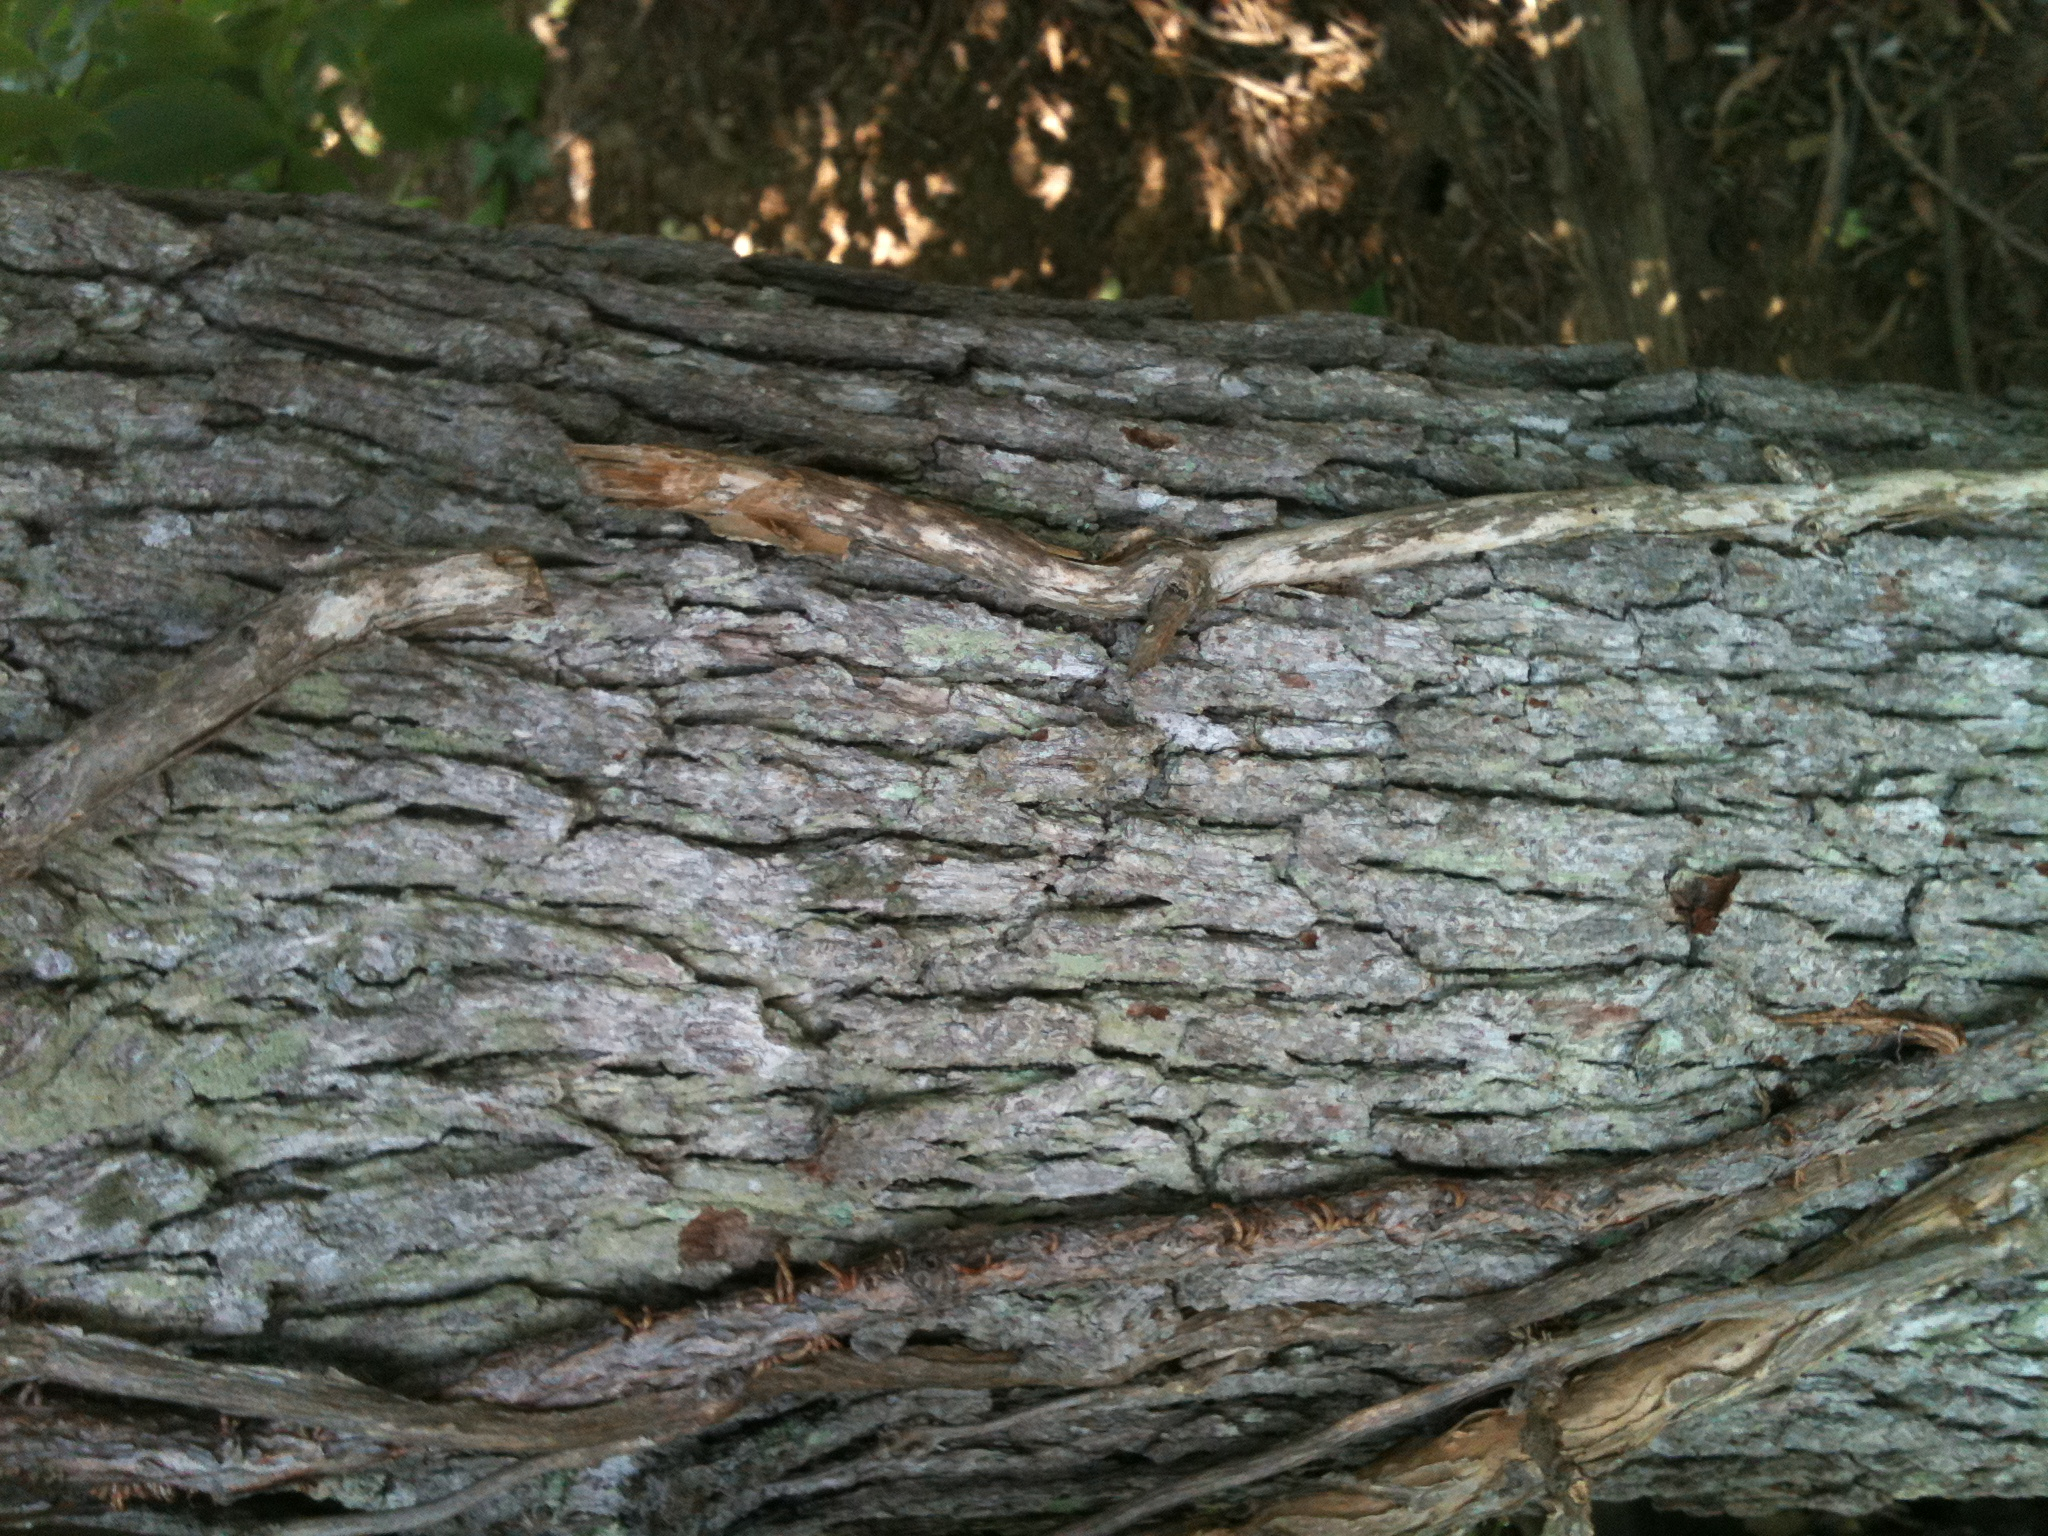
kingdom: Plantae
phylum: Tracheophyta
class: Magnoliopsida
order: Fagales
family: Fagaceae
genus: Quercus
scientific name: Quercus stellata
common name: Post oak
